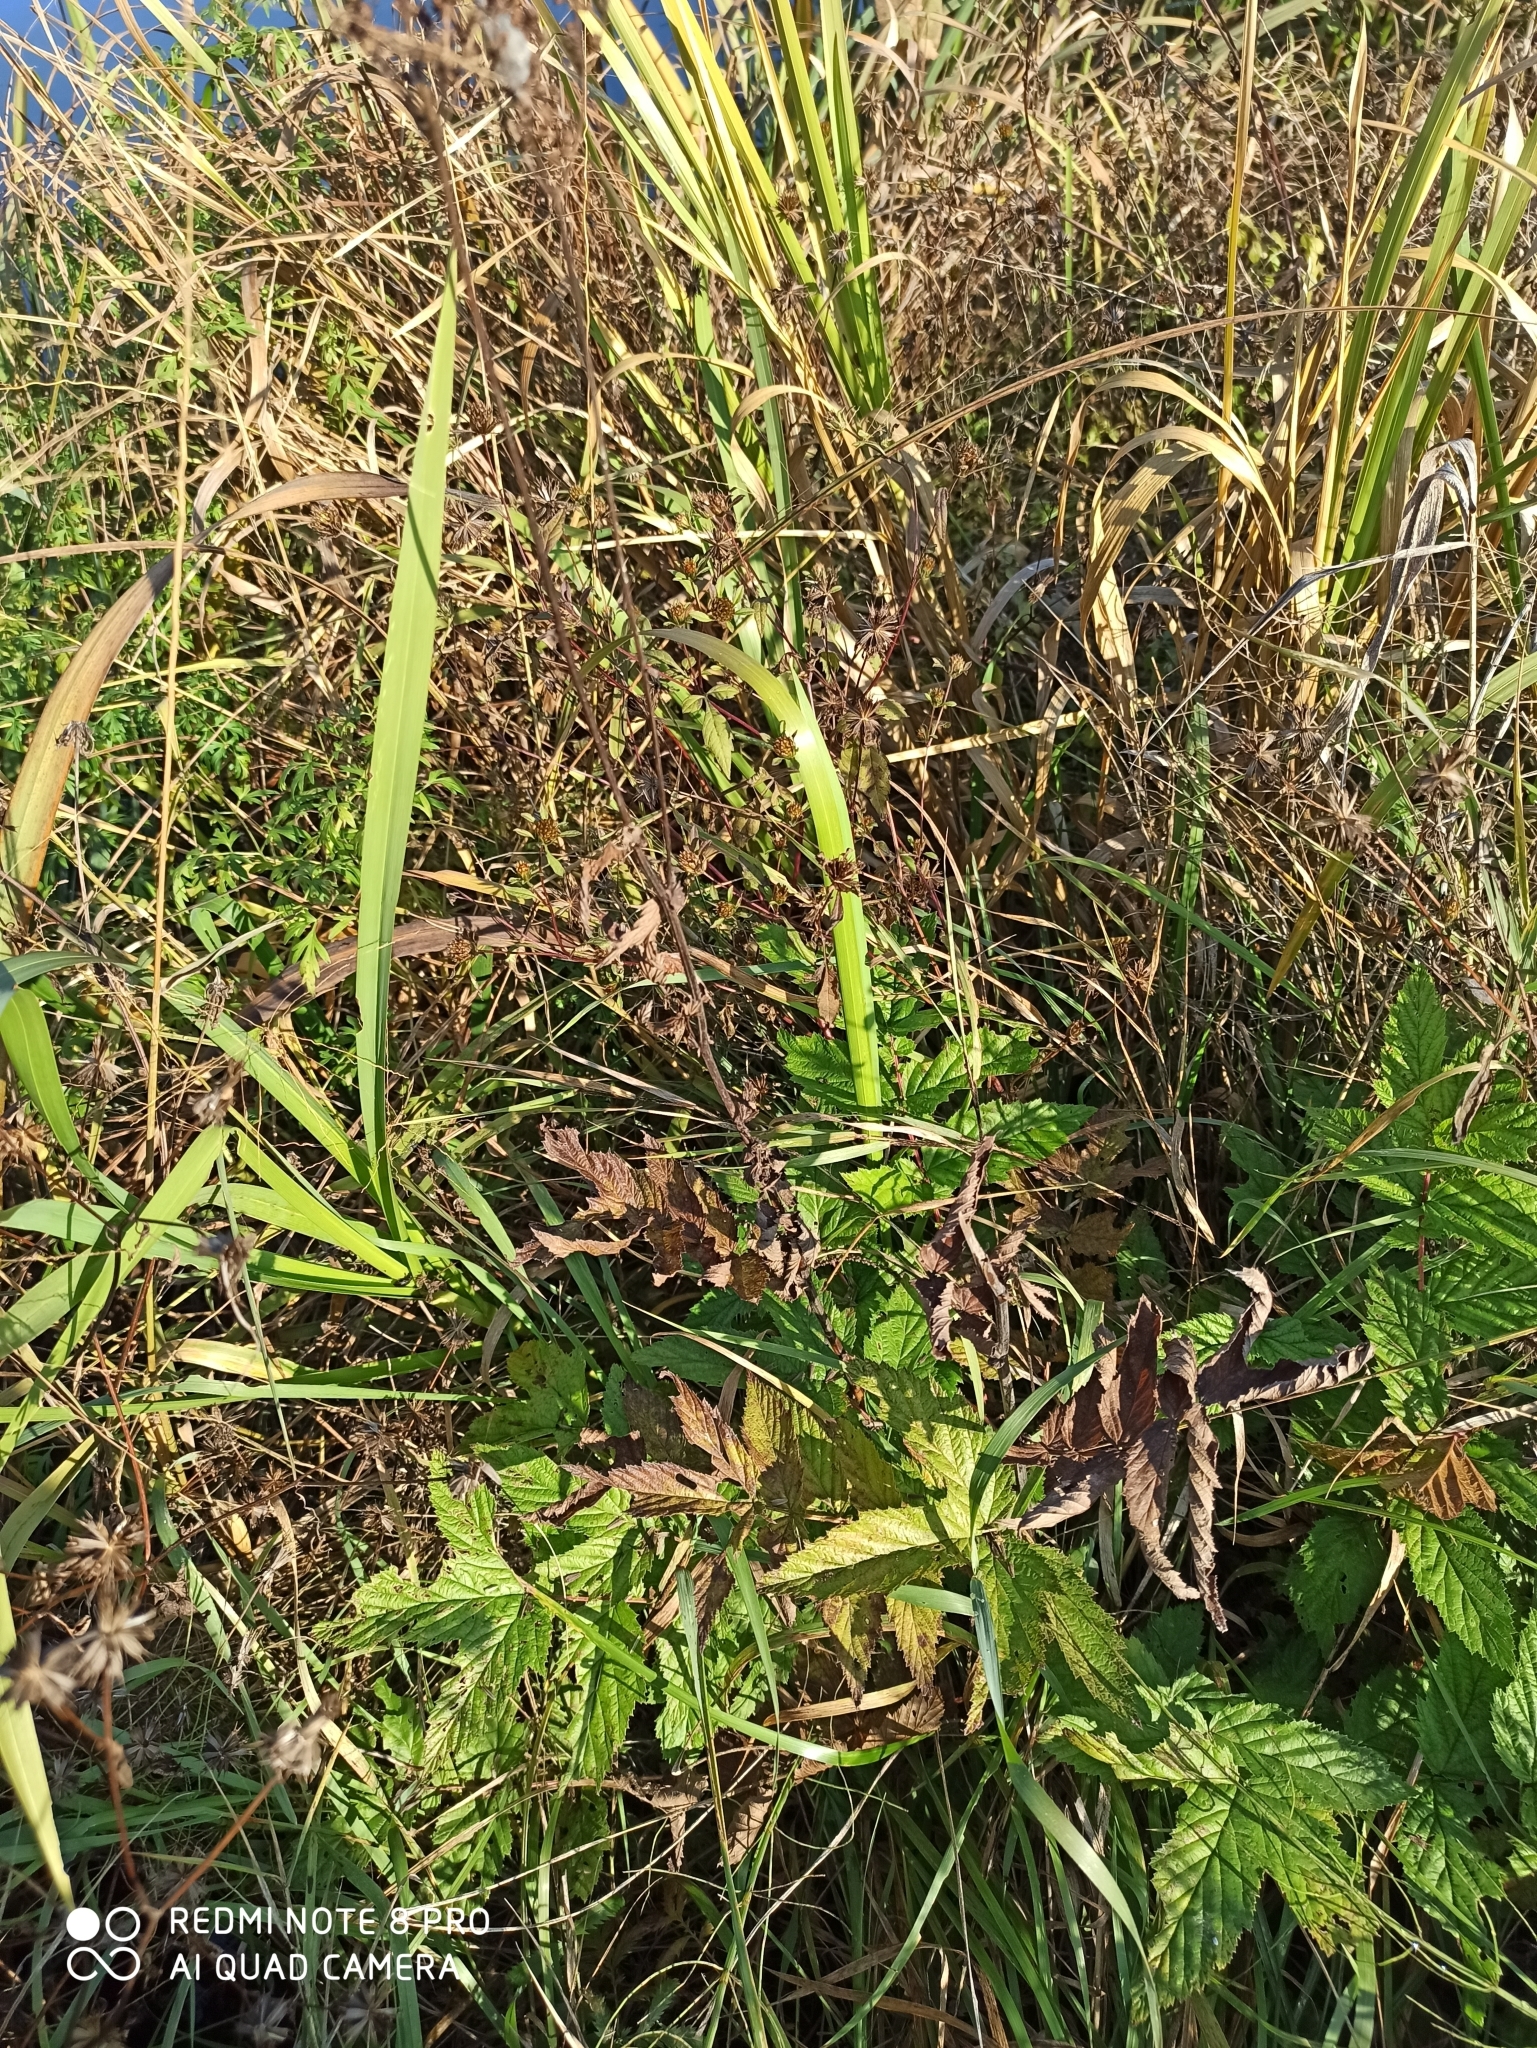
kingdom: Plantae
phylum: Tracheophyta
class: Magnoliopsida
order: Rosales
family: Rosaceae
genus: Filipendula
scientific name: Filipendula ulmaria
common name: Meadowsweet
